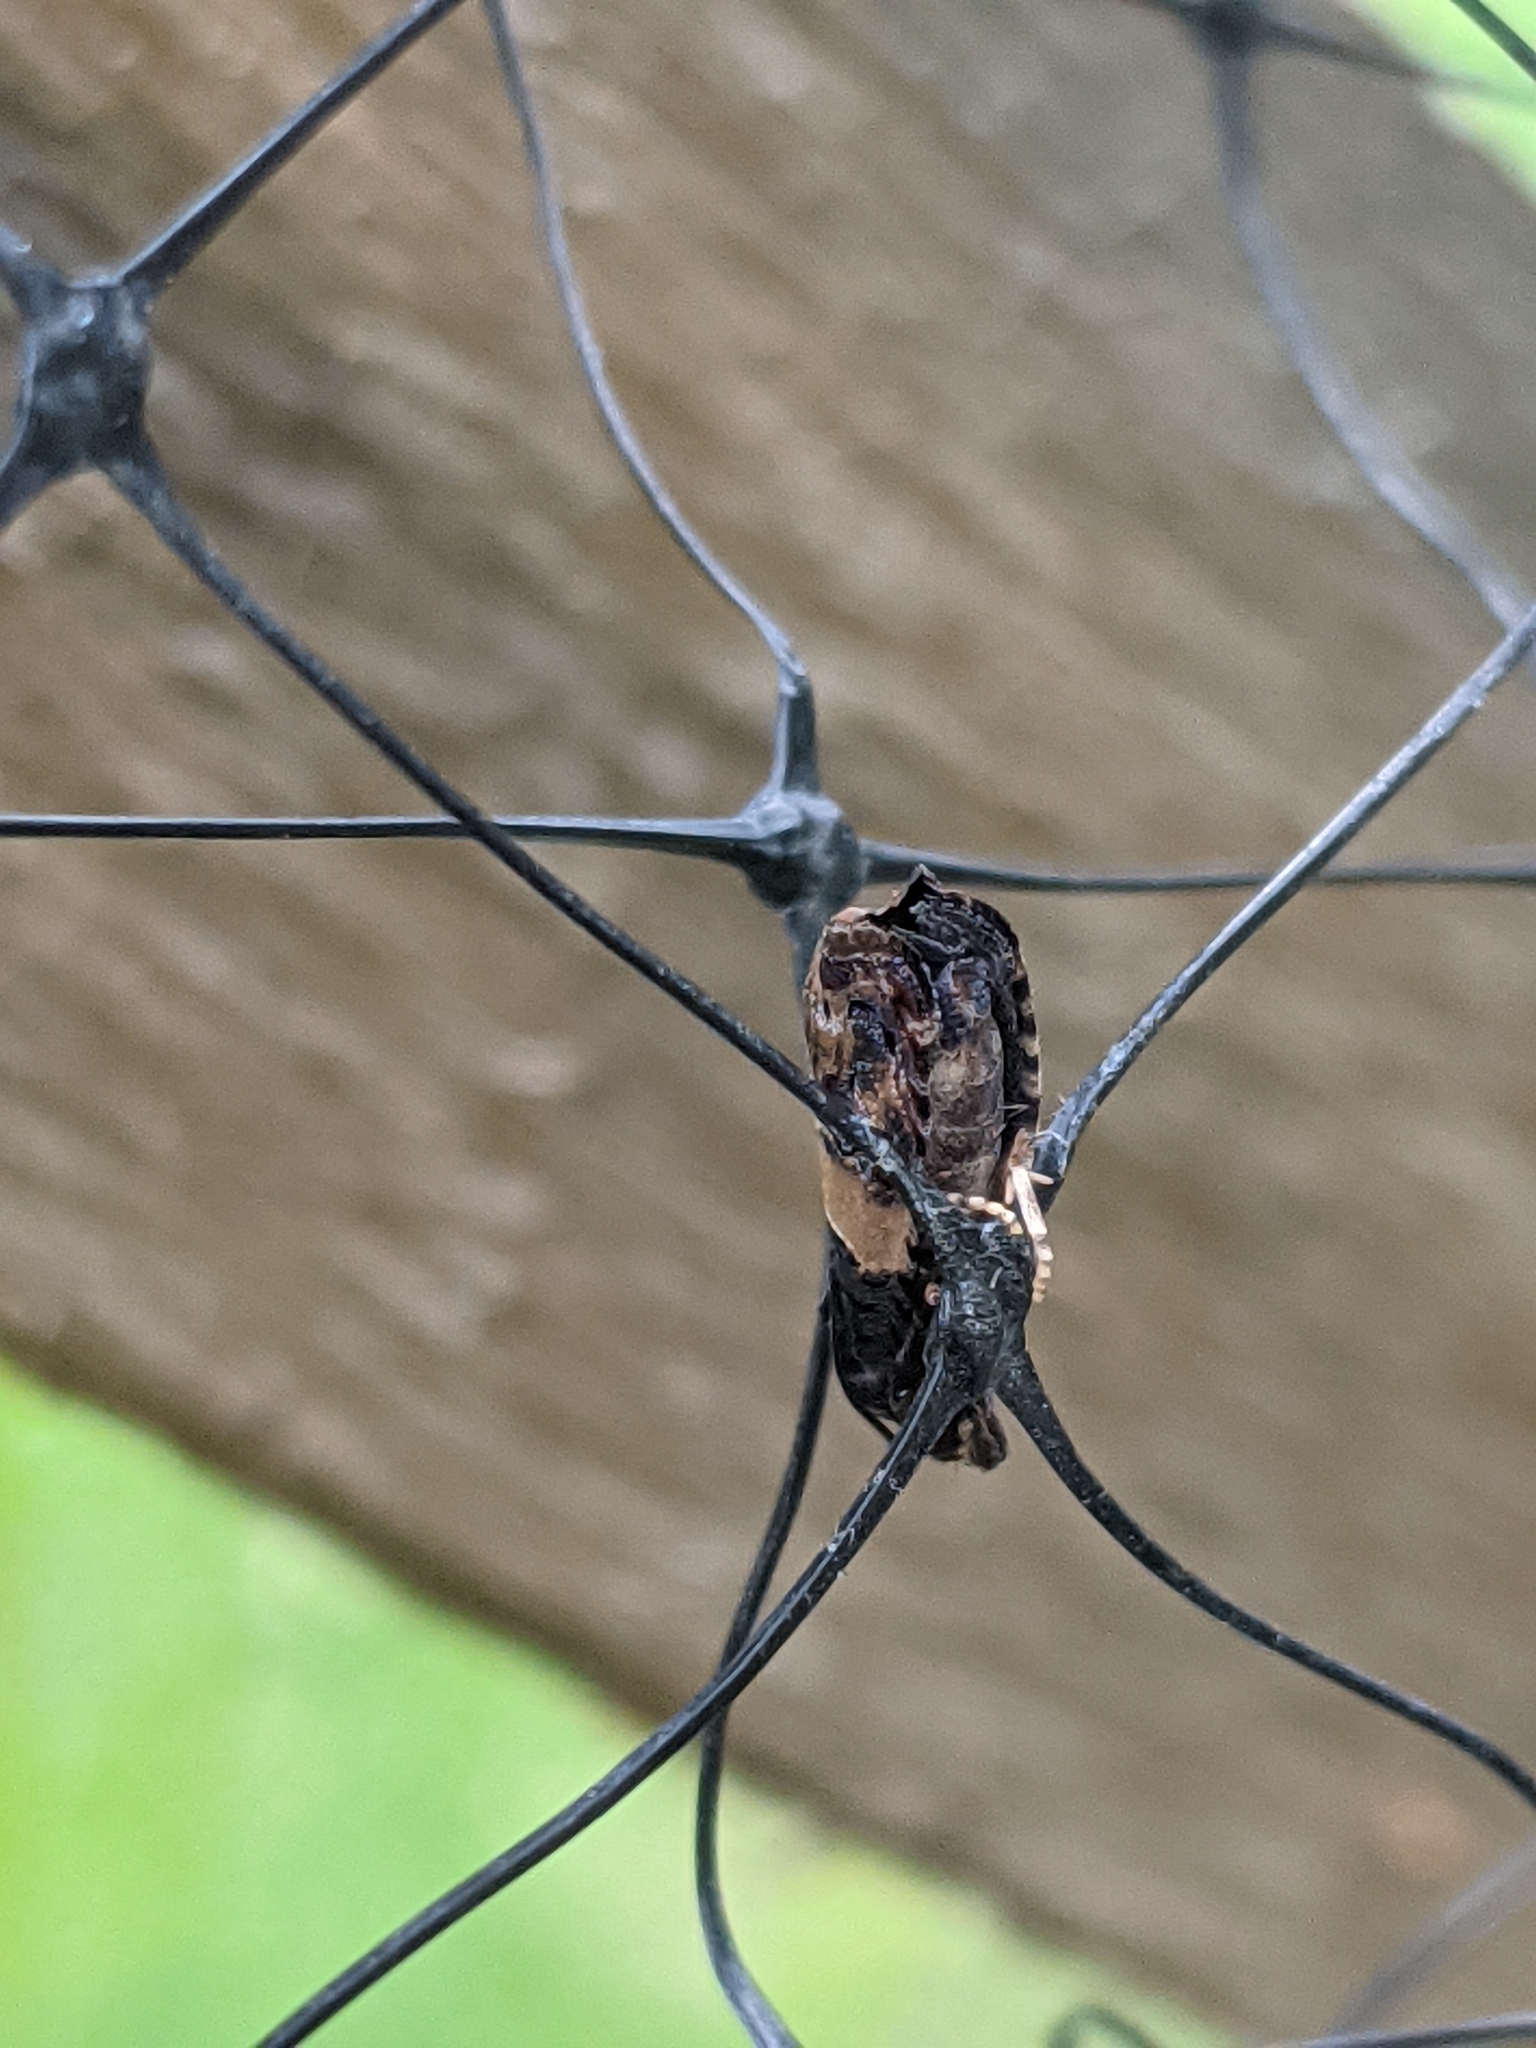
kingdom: Animalia
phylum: Arthropoda
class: Insecta
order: Lepidoptera
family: Tortricidae
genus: Epiblema
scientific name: Epiblema glenni
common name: Glenn's epiblema
